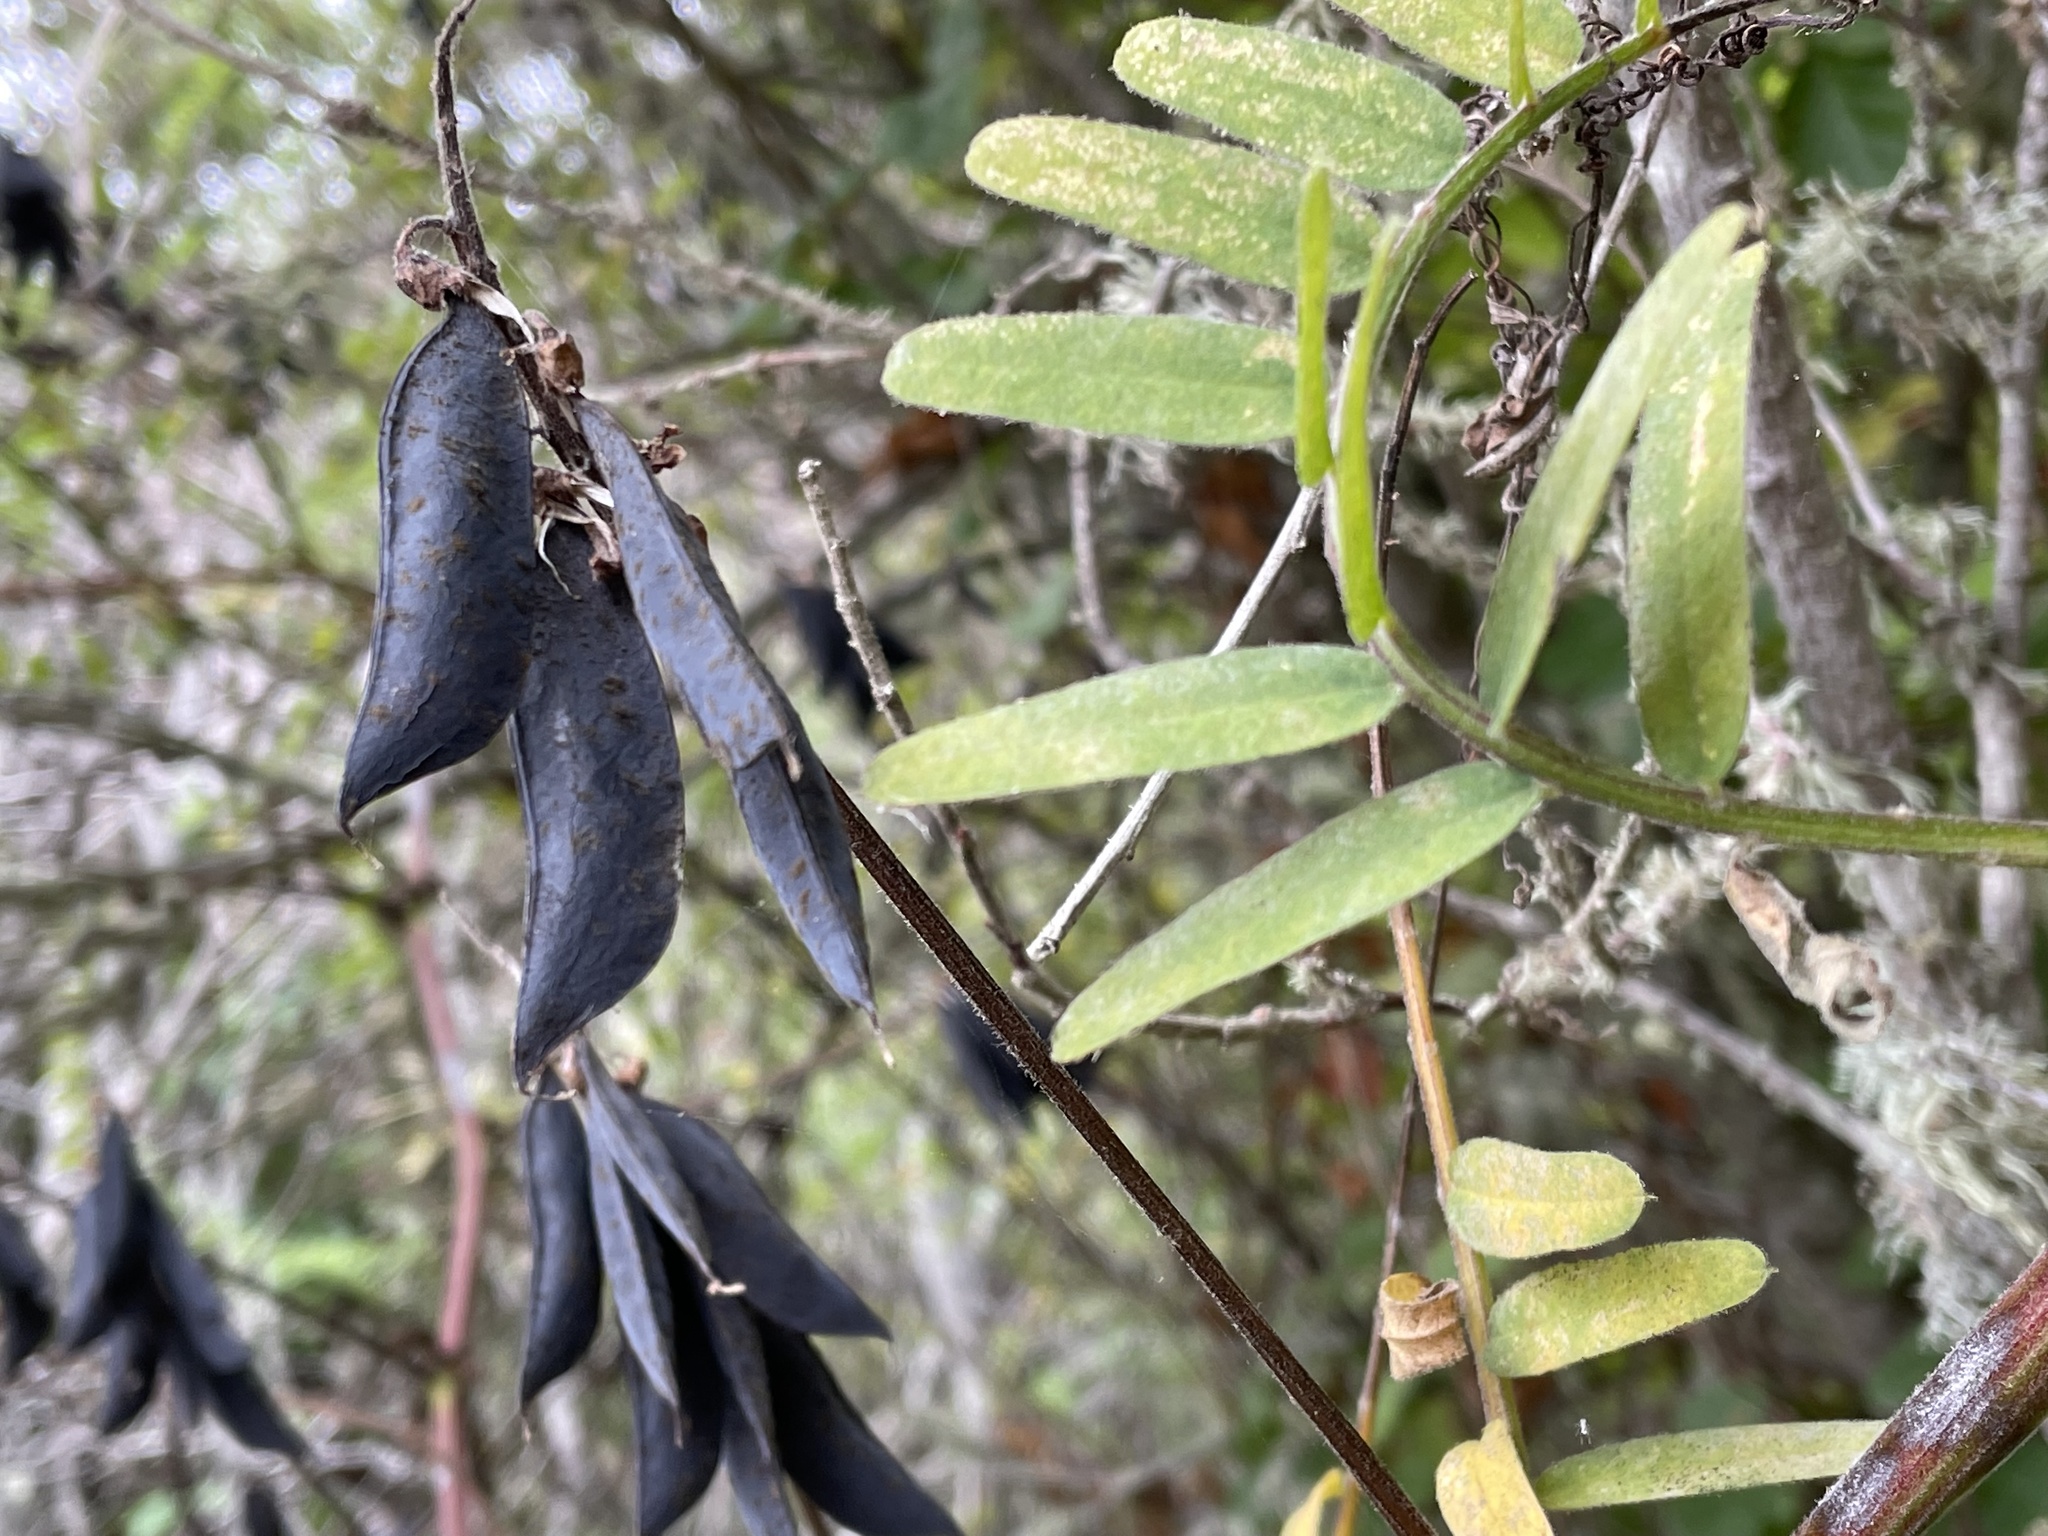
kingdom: Plantae
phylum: Tracheophyta
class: Magnoliopsida
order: Fabales
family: Fabaceae
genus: Vicia
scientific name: Vicia
